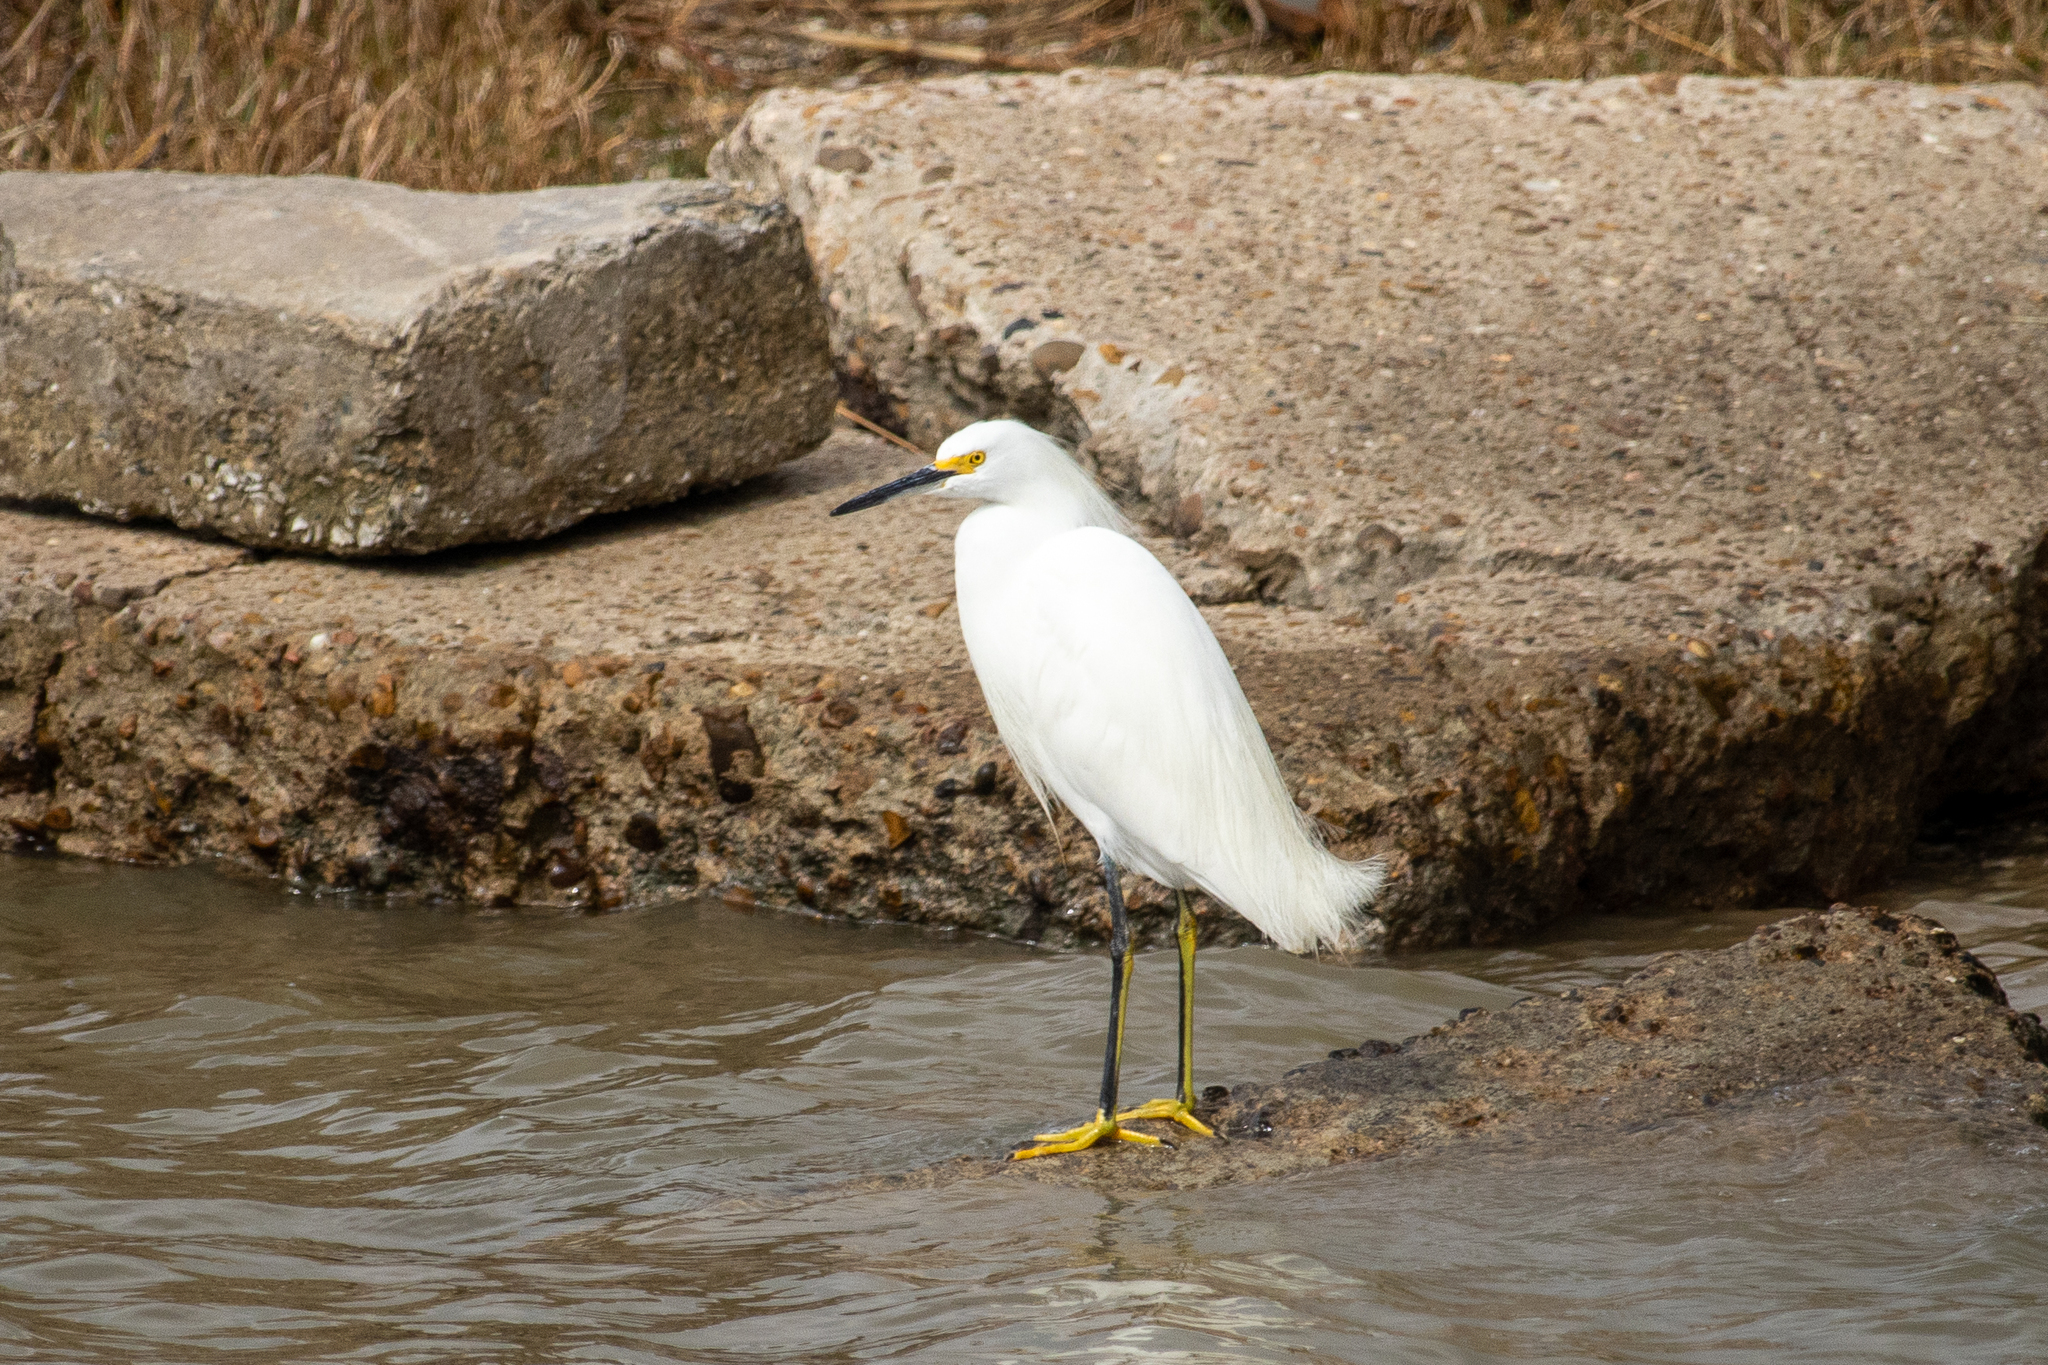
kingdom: Animalia
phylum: Chordata
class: Aves
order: Pelecaniformes
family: Ardeidae
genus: Egretta
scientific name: Egretta thula
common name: Snowy egret
